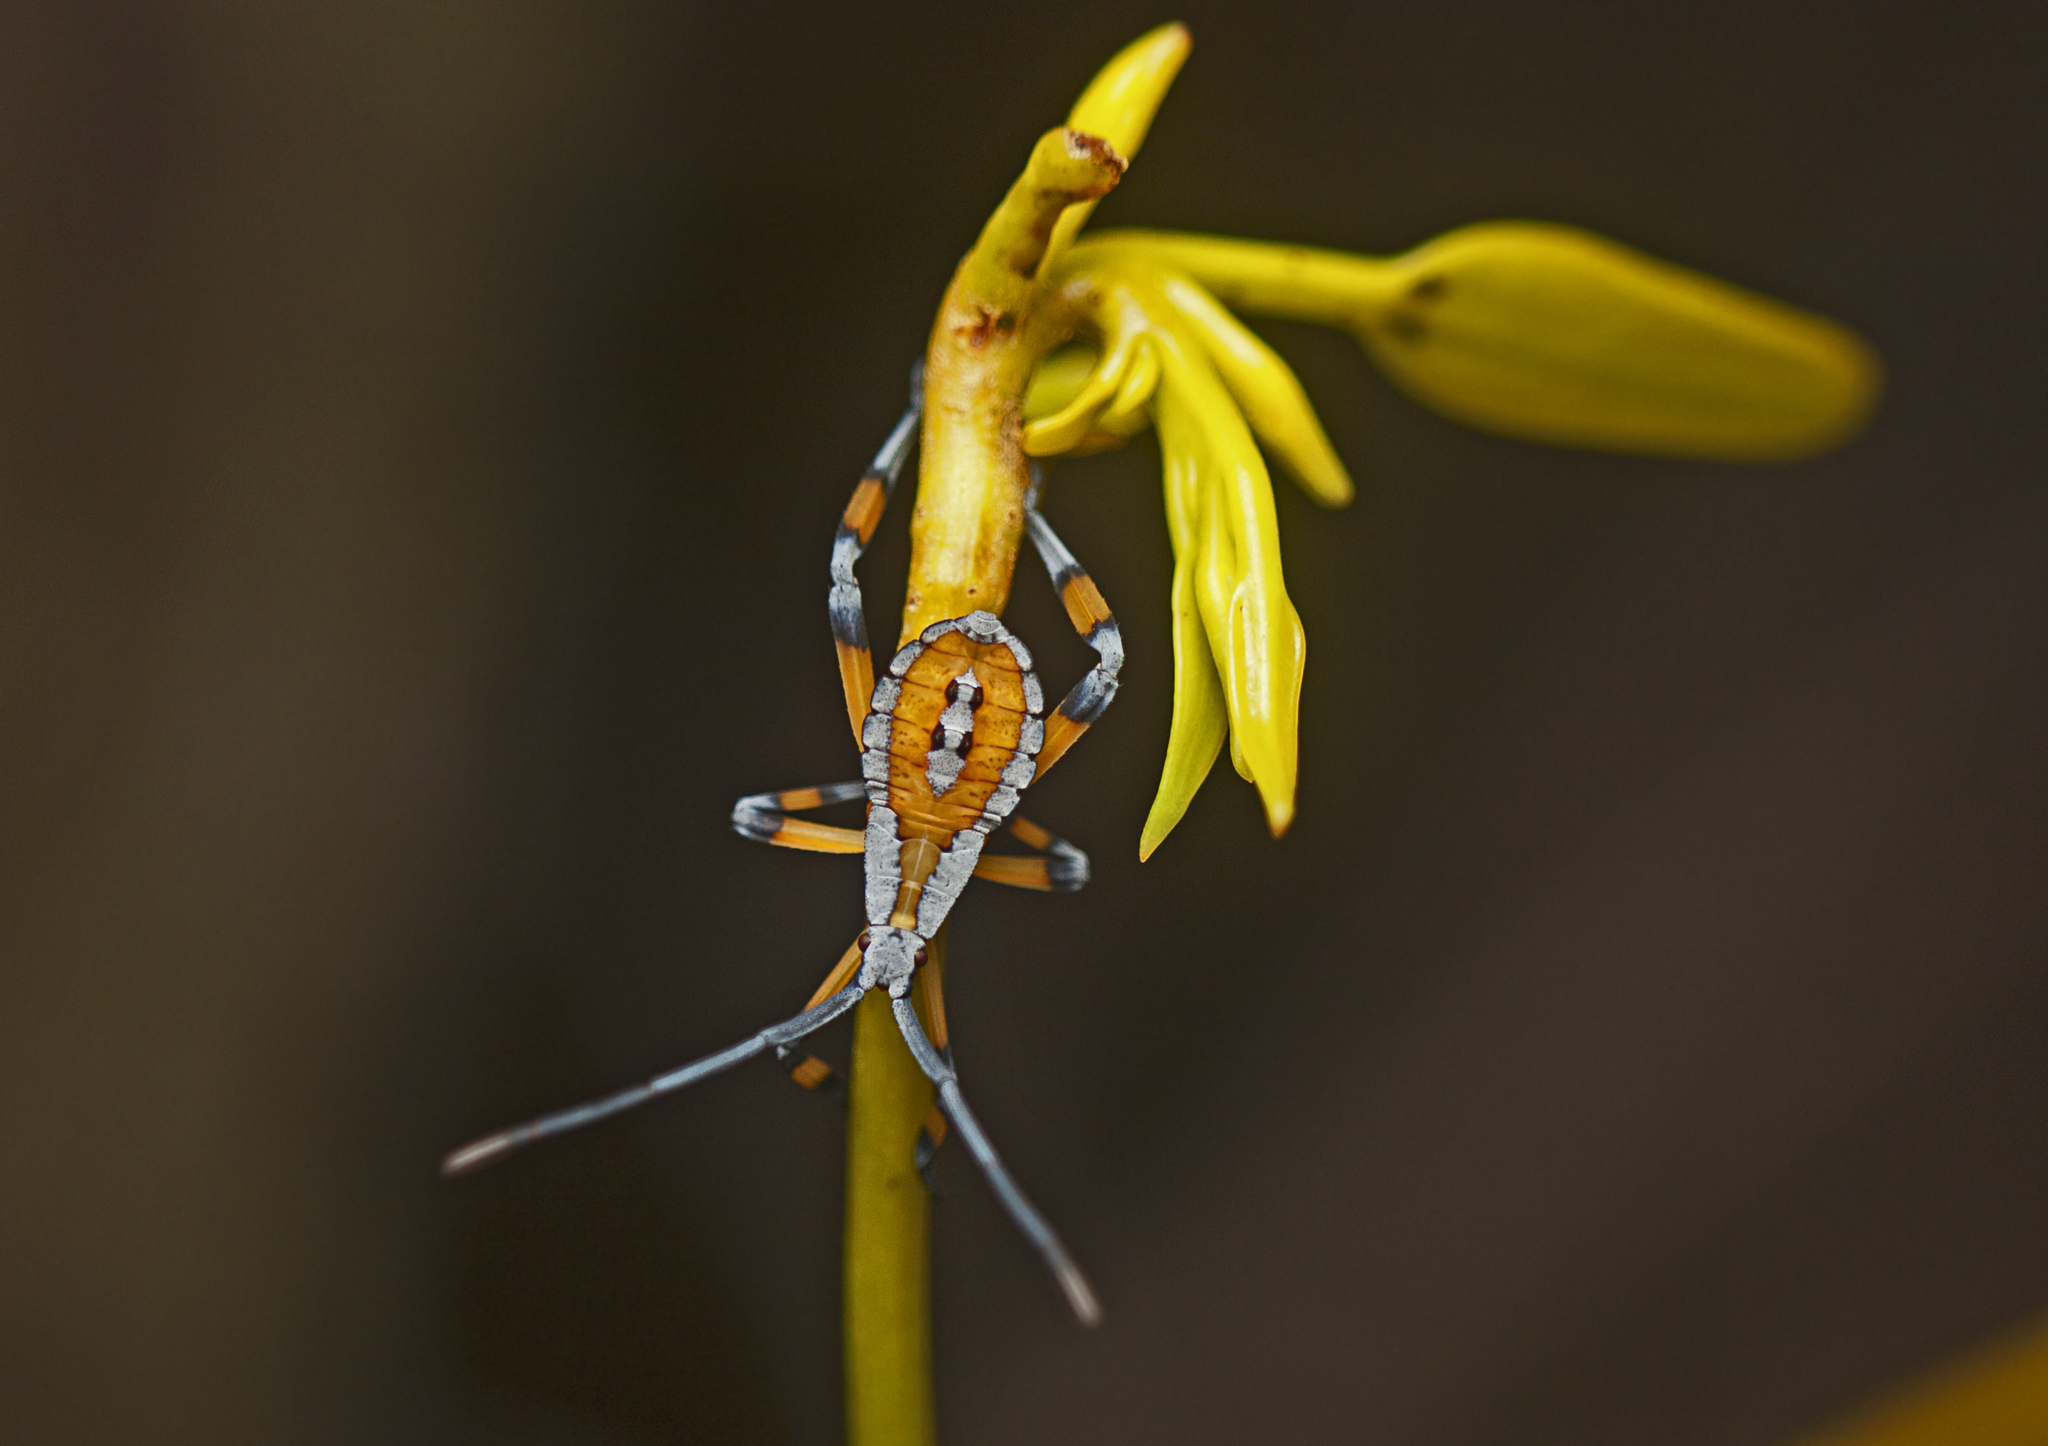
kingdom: Animalia
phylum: Arthropoda
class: Insecta
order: Hemiptera
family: Coreidae
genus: Amorbus
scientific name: Amorbus robustus
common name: Common gum-tree bug
